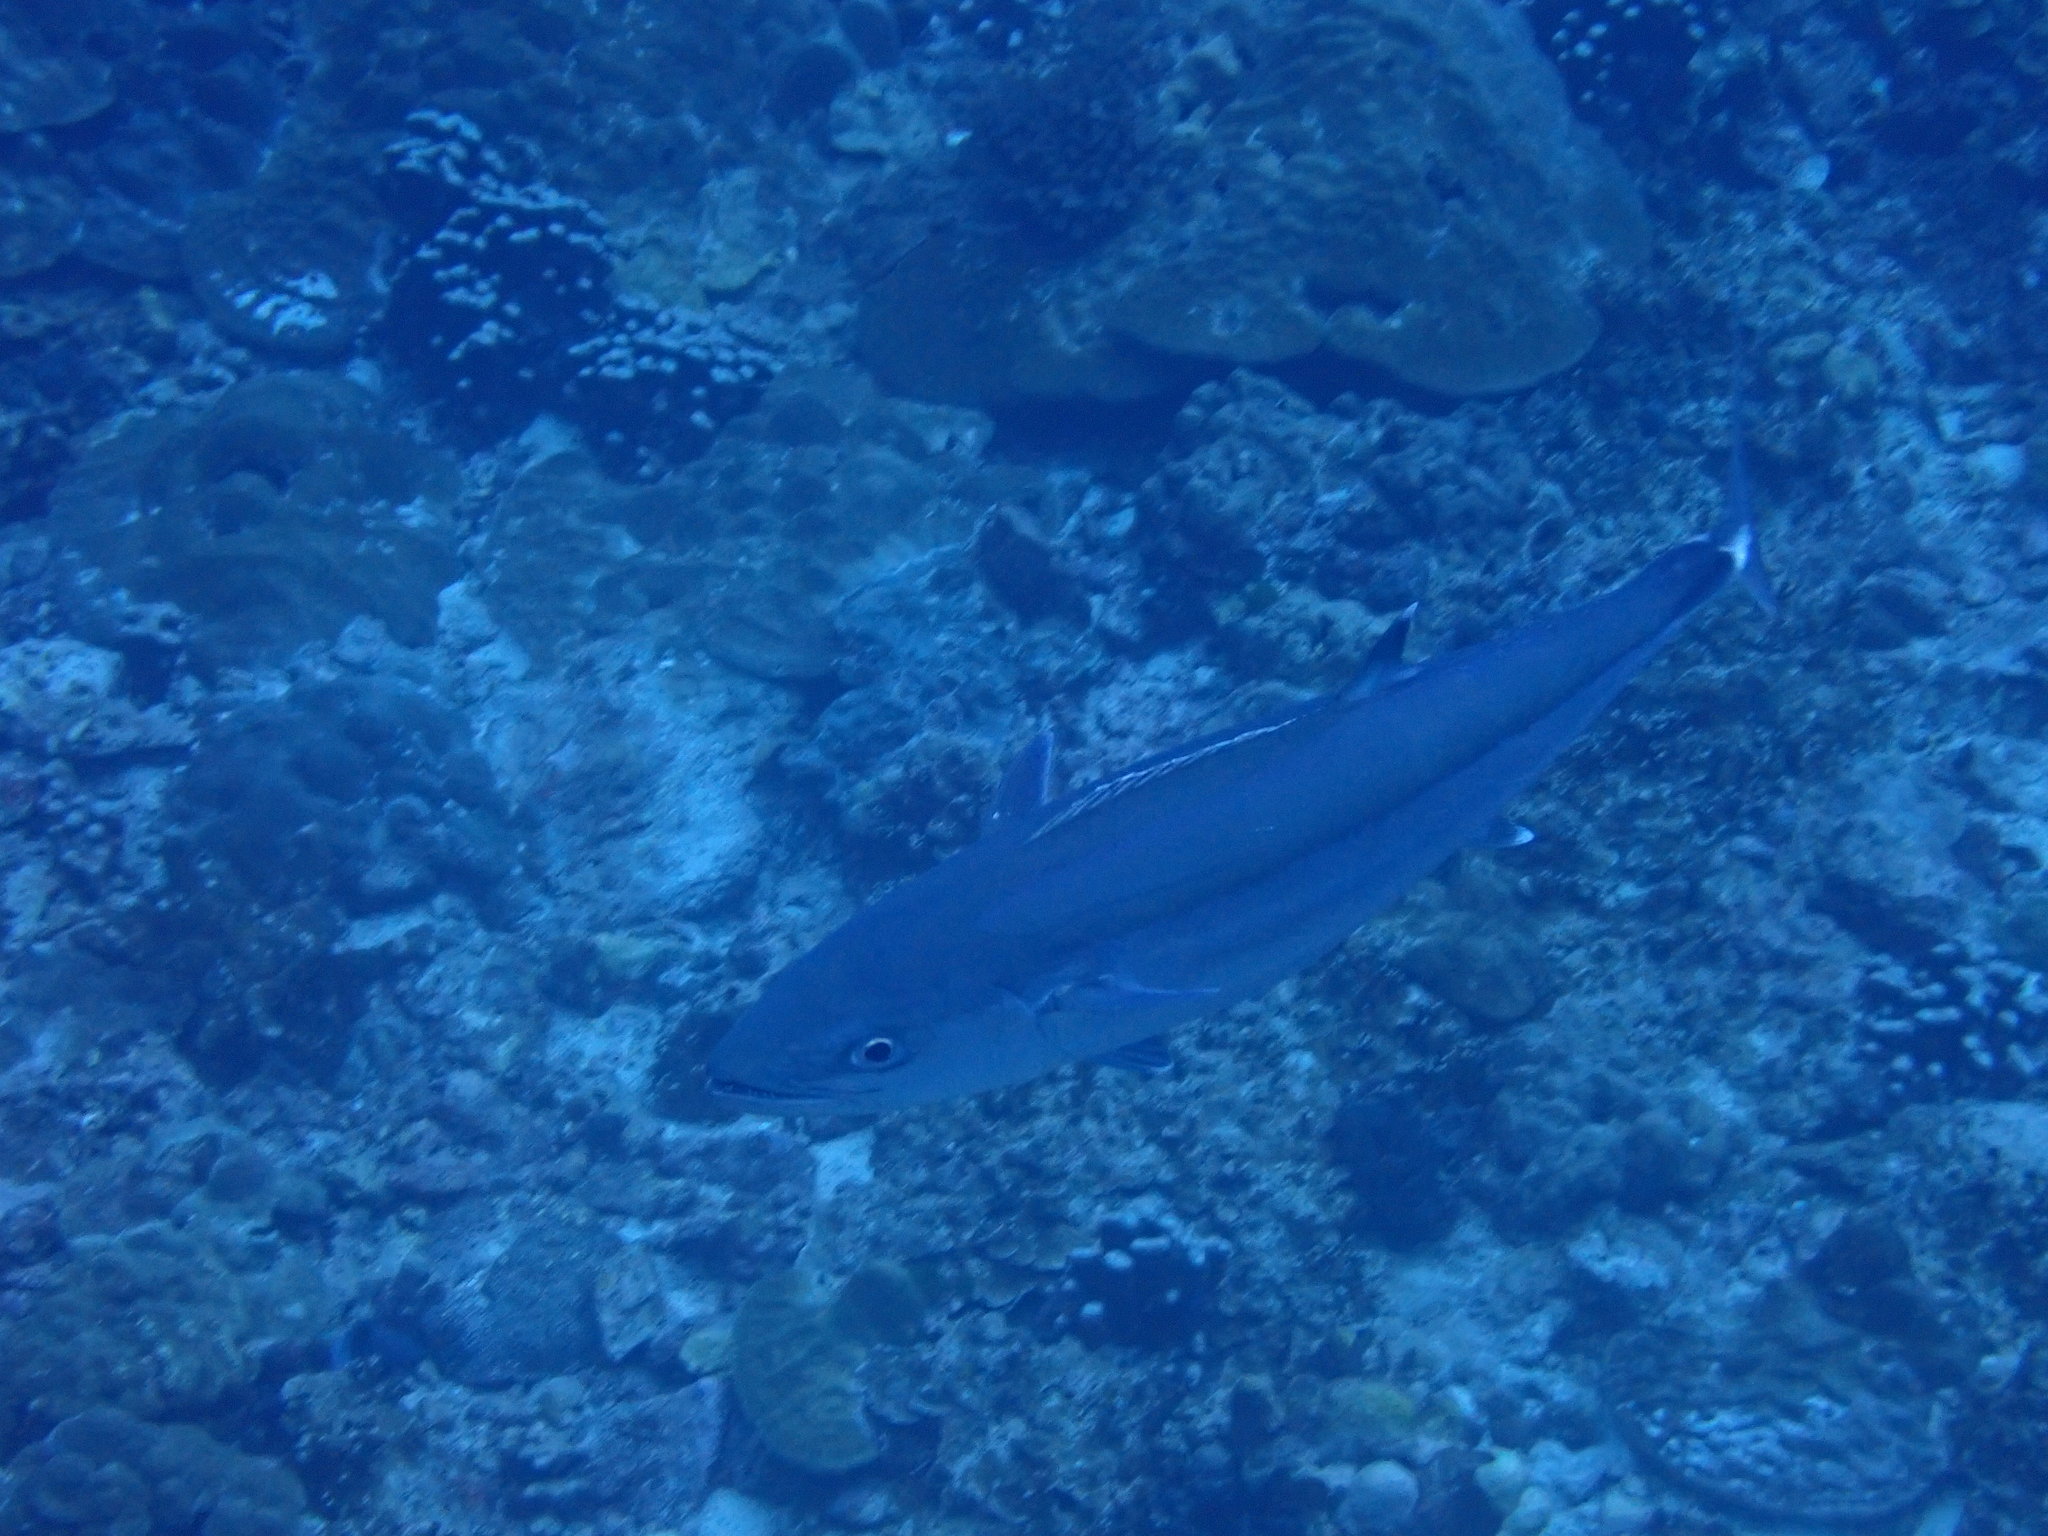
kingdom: Animalia
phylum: Chordata
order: Perciformes
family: Scombridae
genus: Gymnosarda
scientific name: Gymnosarda unicolor
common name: Dogtooth tuna
